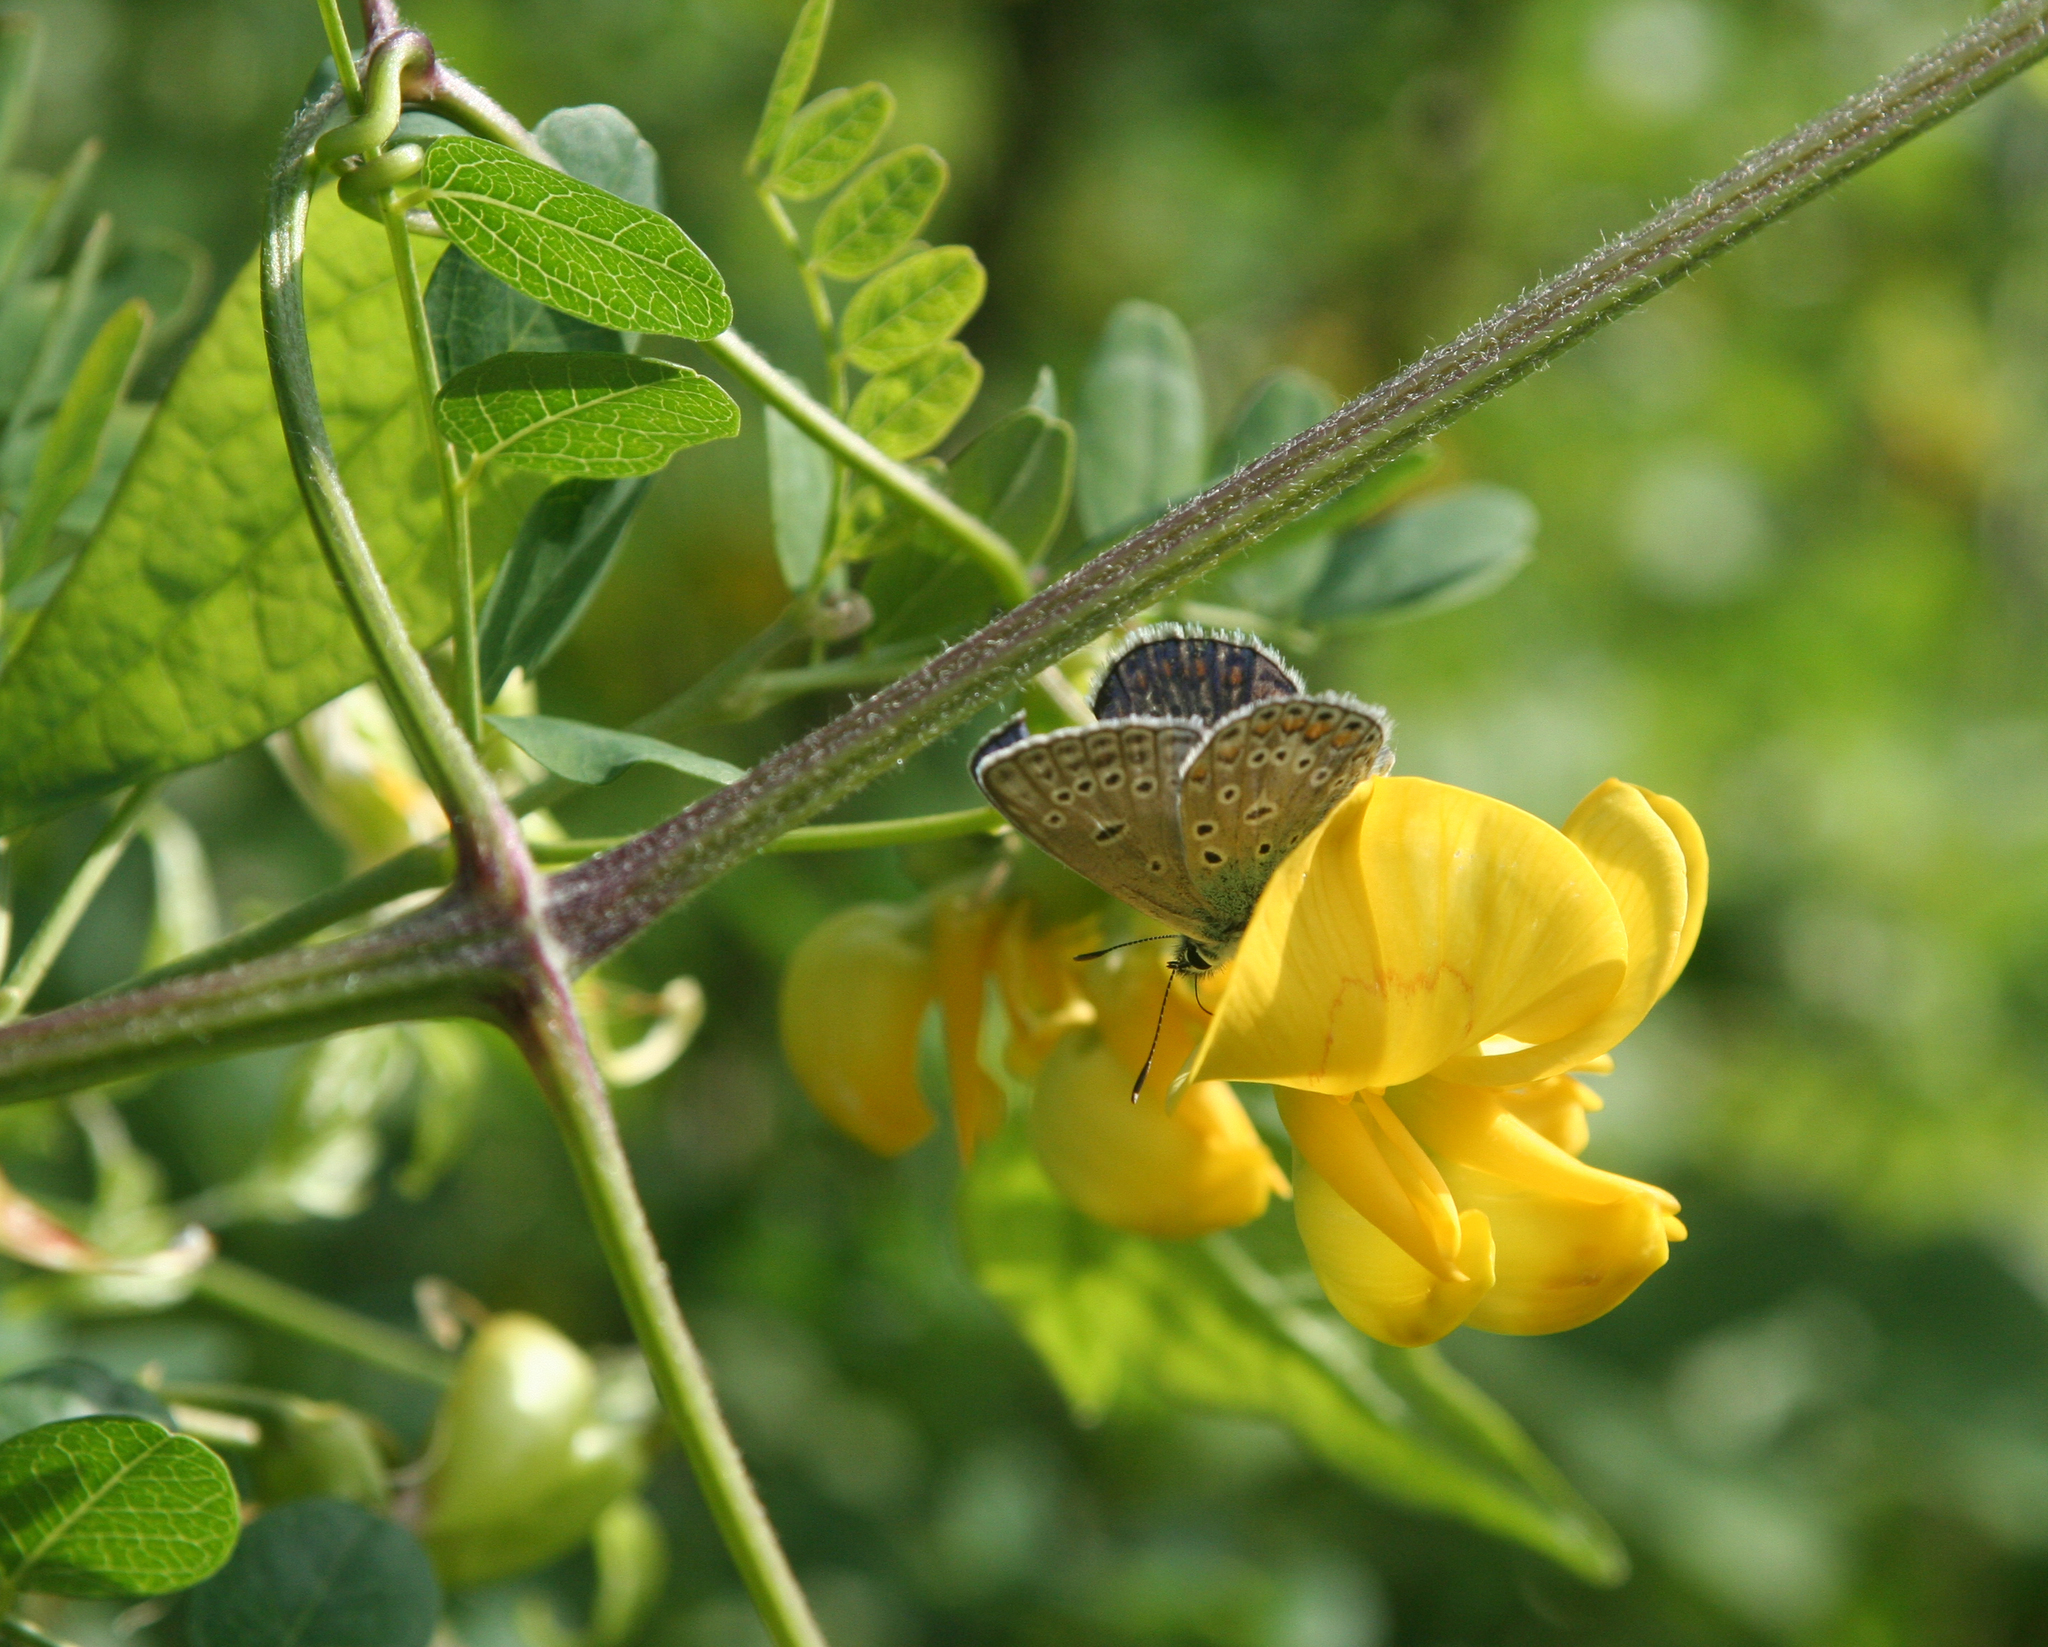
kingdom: Animalia
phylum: Arthropoda
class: Insecta
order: Lepidoptera
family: Lycaenidae
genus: Polyommatus
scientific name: Polyommatus icarus
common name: Common blue
